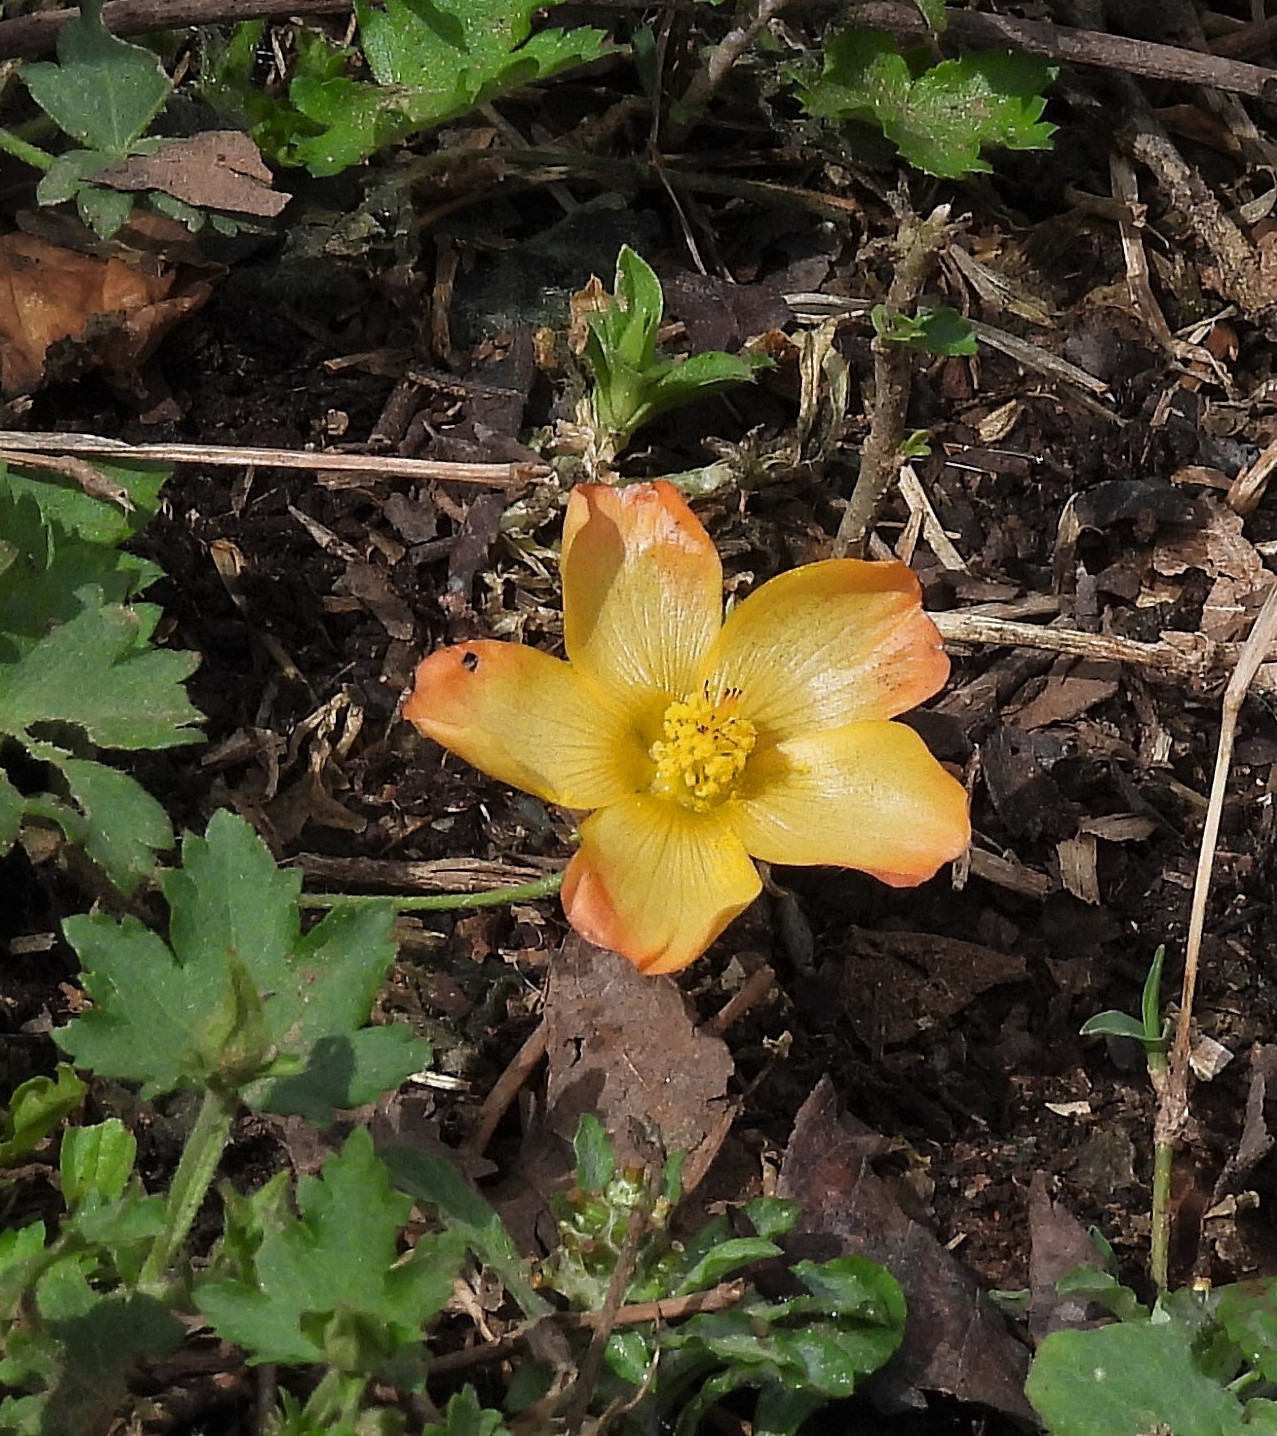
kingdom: Plantae
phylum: Tracheophyta
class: Magnoliopsida
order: Malvales
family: Malvaceae
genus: Modiolastrum
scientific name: Modiolastrum malvifolium
